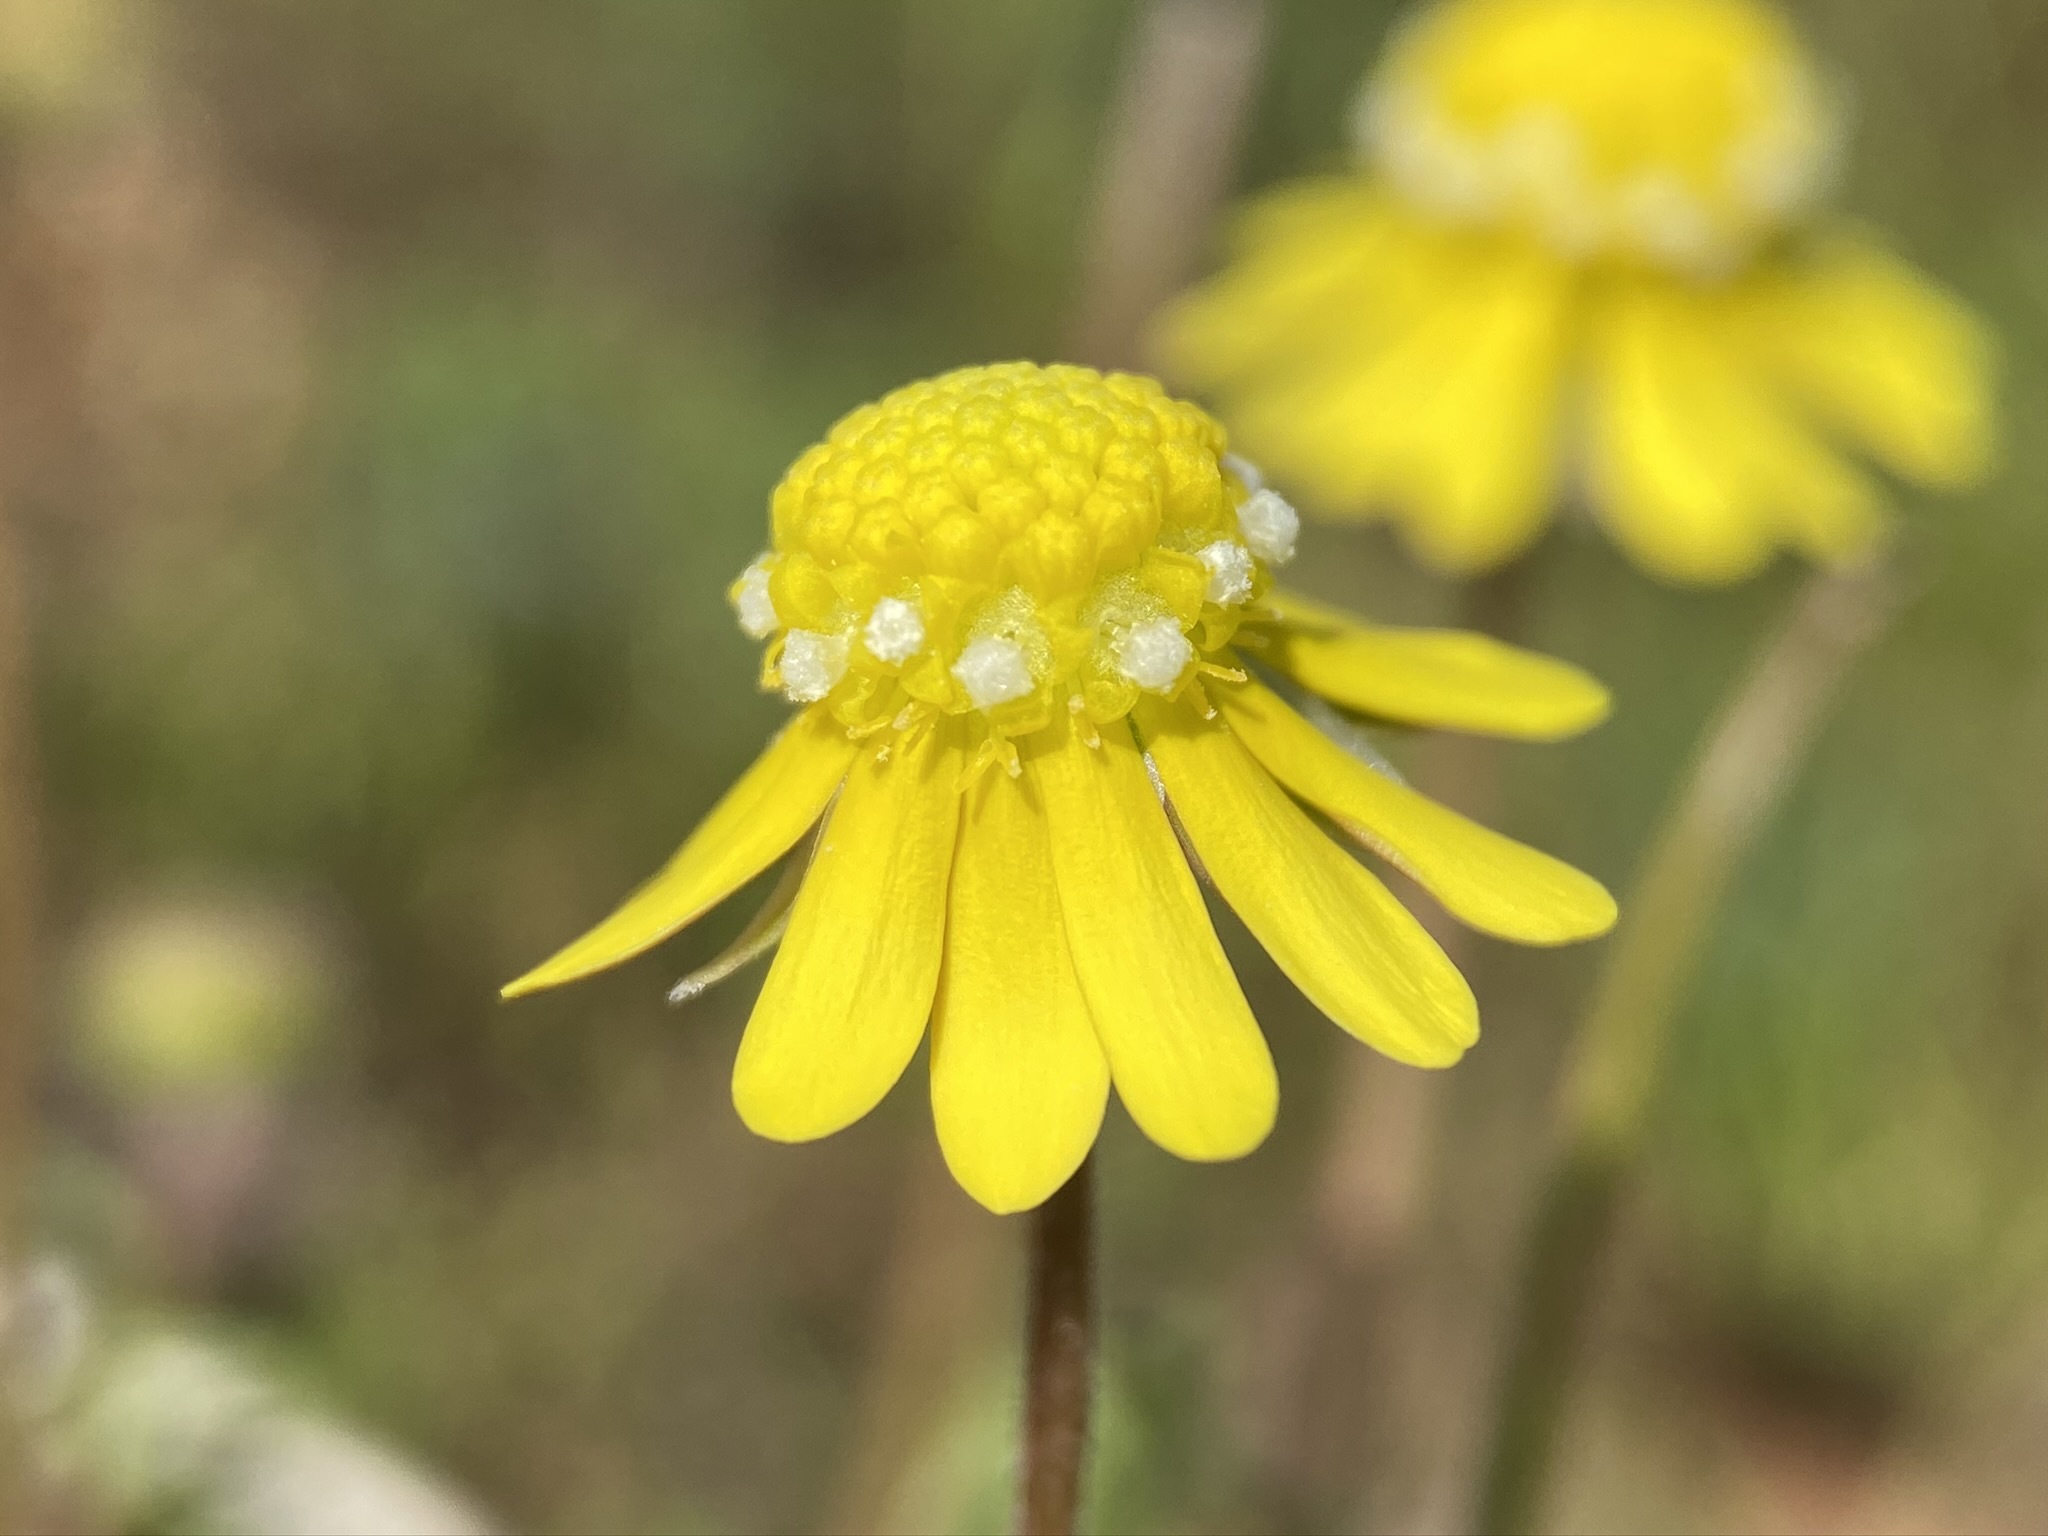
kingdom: Plantae
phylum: Tracheophyta
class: Magnoliopsida
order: Asterales
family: Asteraceae
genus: Blennosperma
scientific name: Blennosperma nanum
